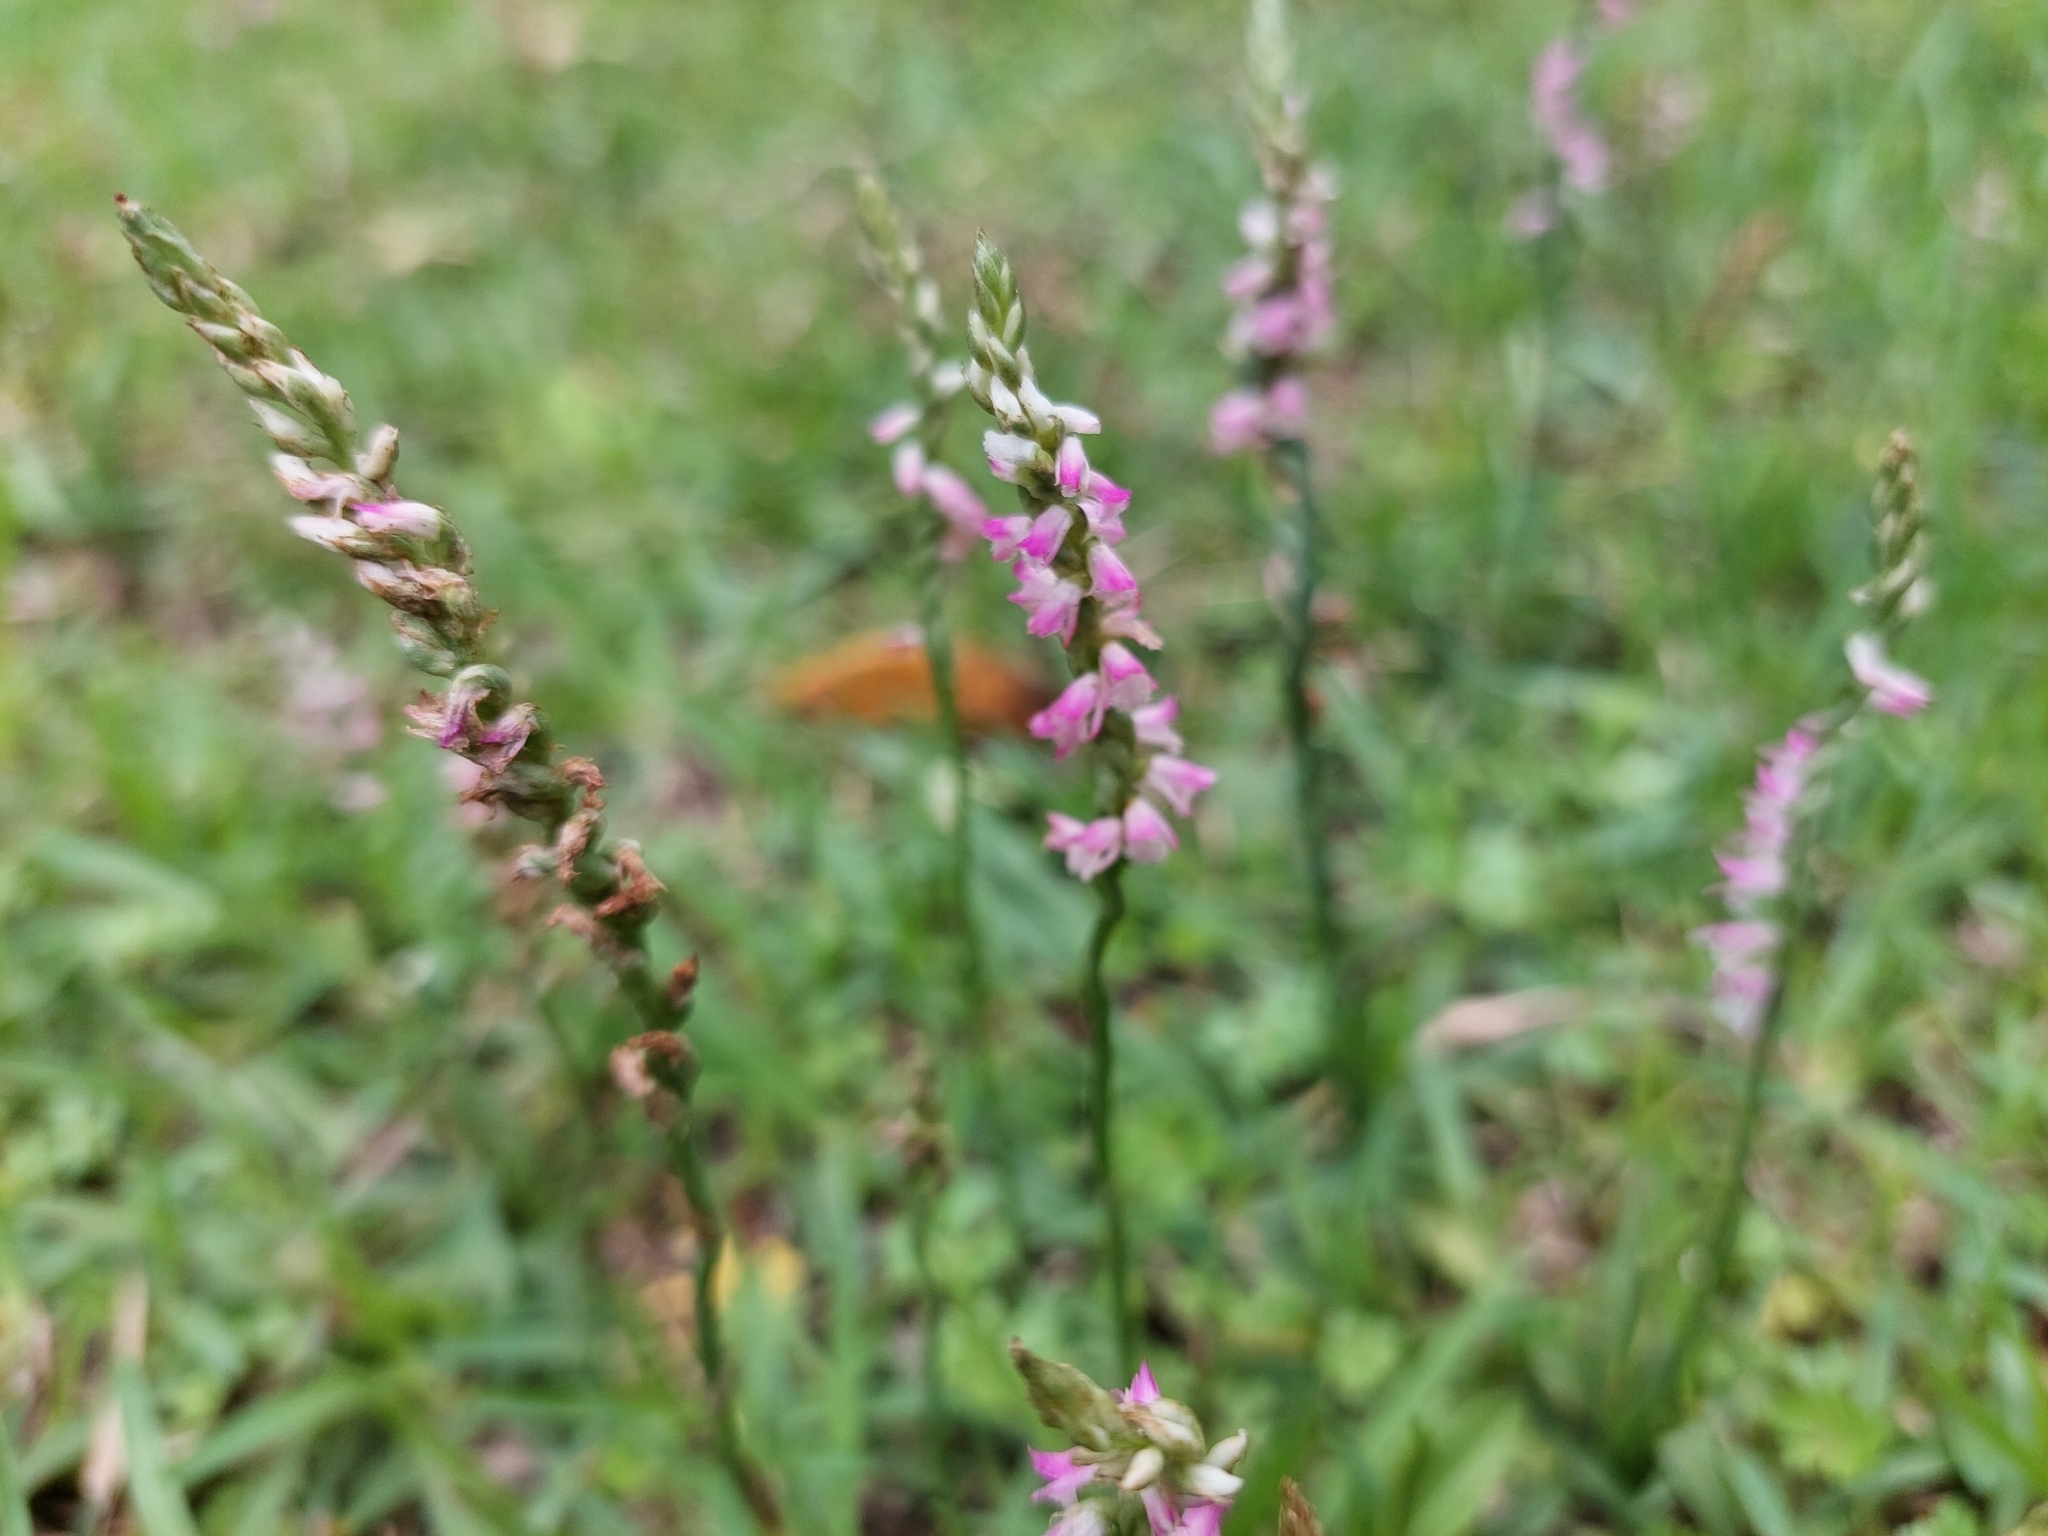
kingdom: Plantae
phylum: Tracheophyta
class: Liliopsida
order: Asparagales
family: Orchidaceae
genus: Spiranthes
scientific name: Spiranthes sinensis
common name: Chinese spiranthes
